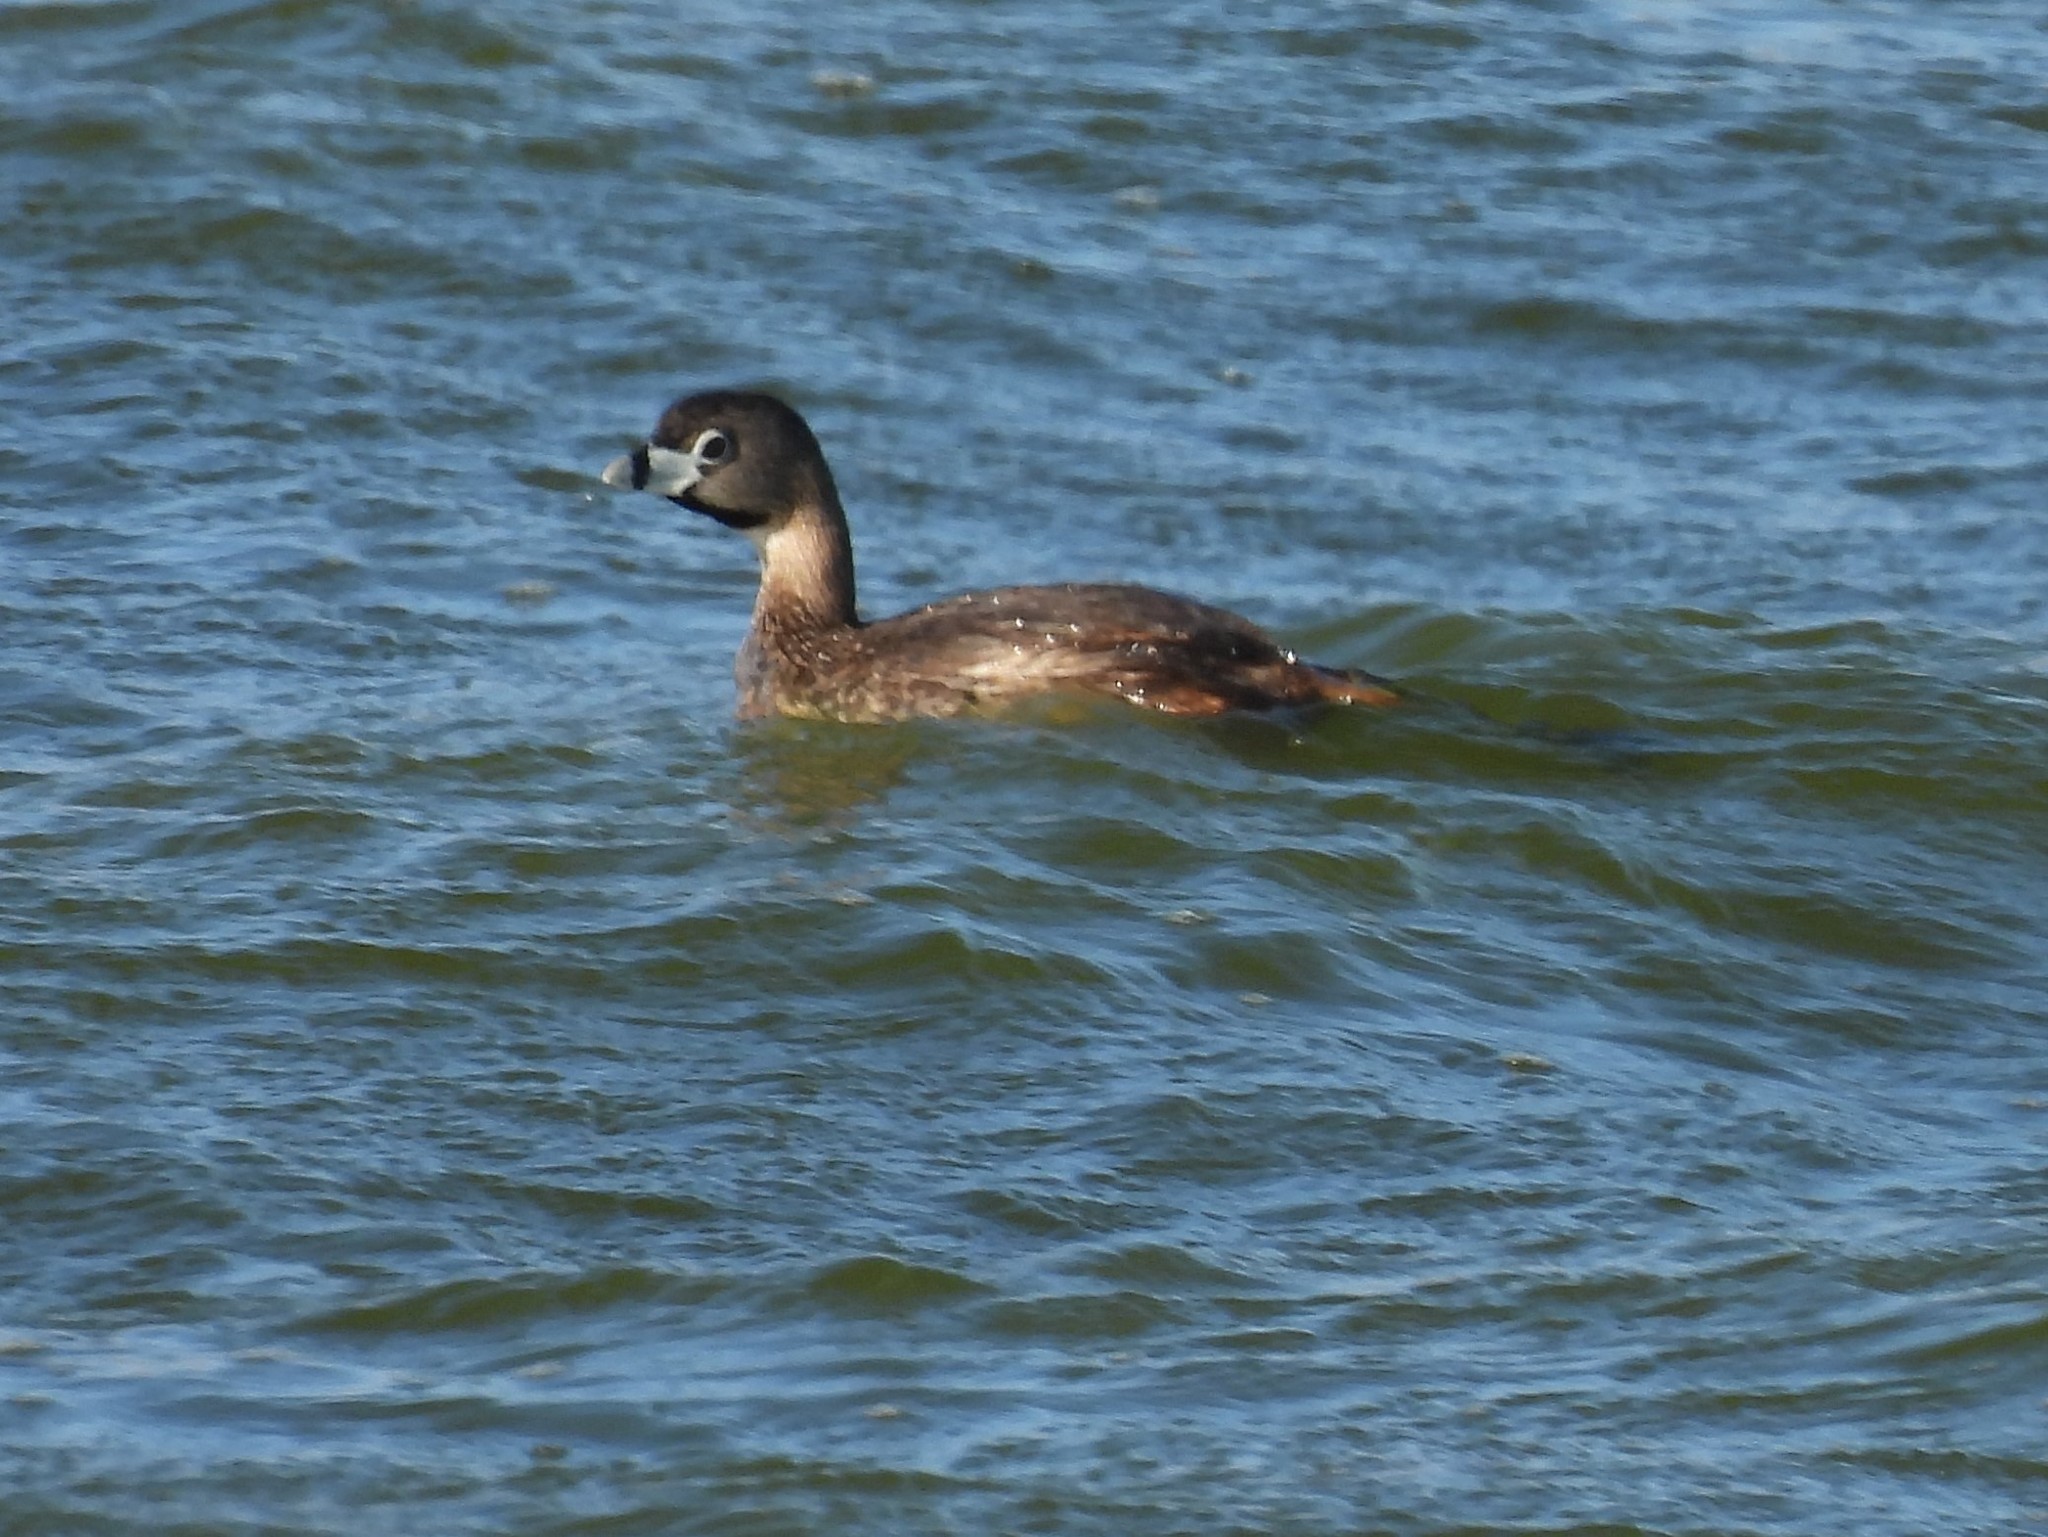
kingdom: Animalia
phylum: Chordata
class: Aves
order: Podicipediformes
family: Podicipedidae
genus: Podilymbus
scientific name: Podilymbus podiceps
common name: Pied-billed grebe
